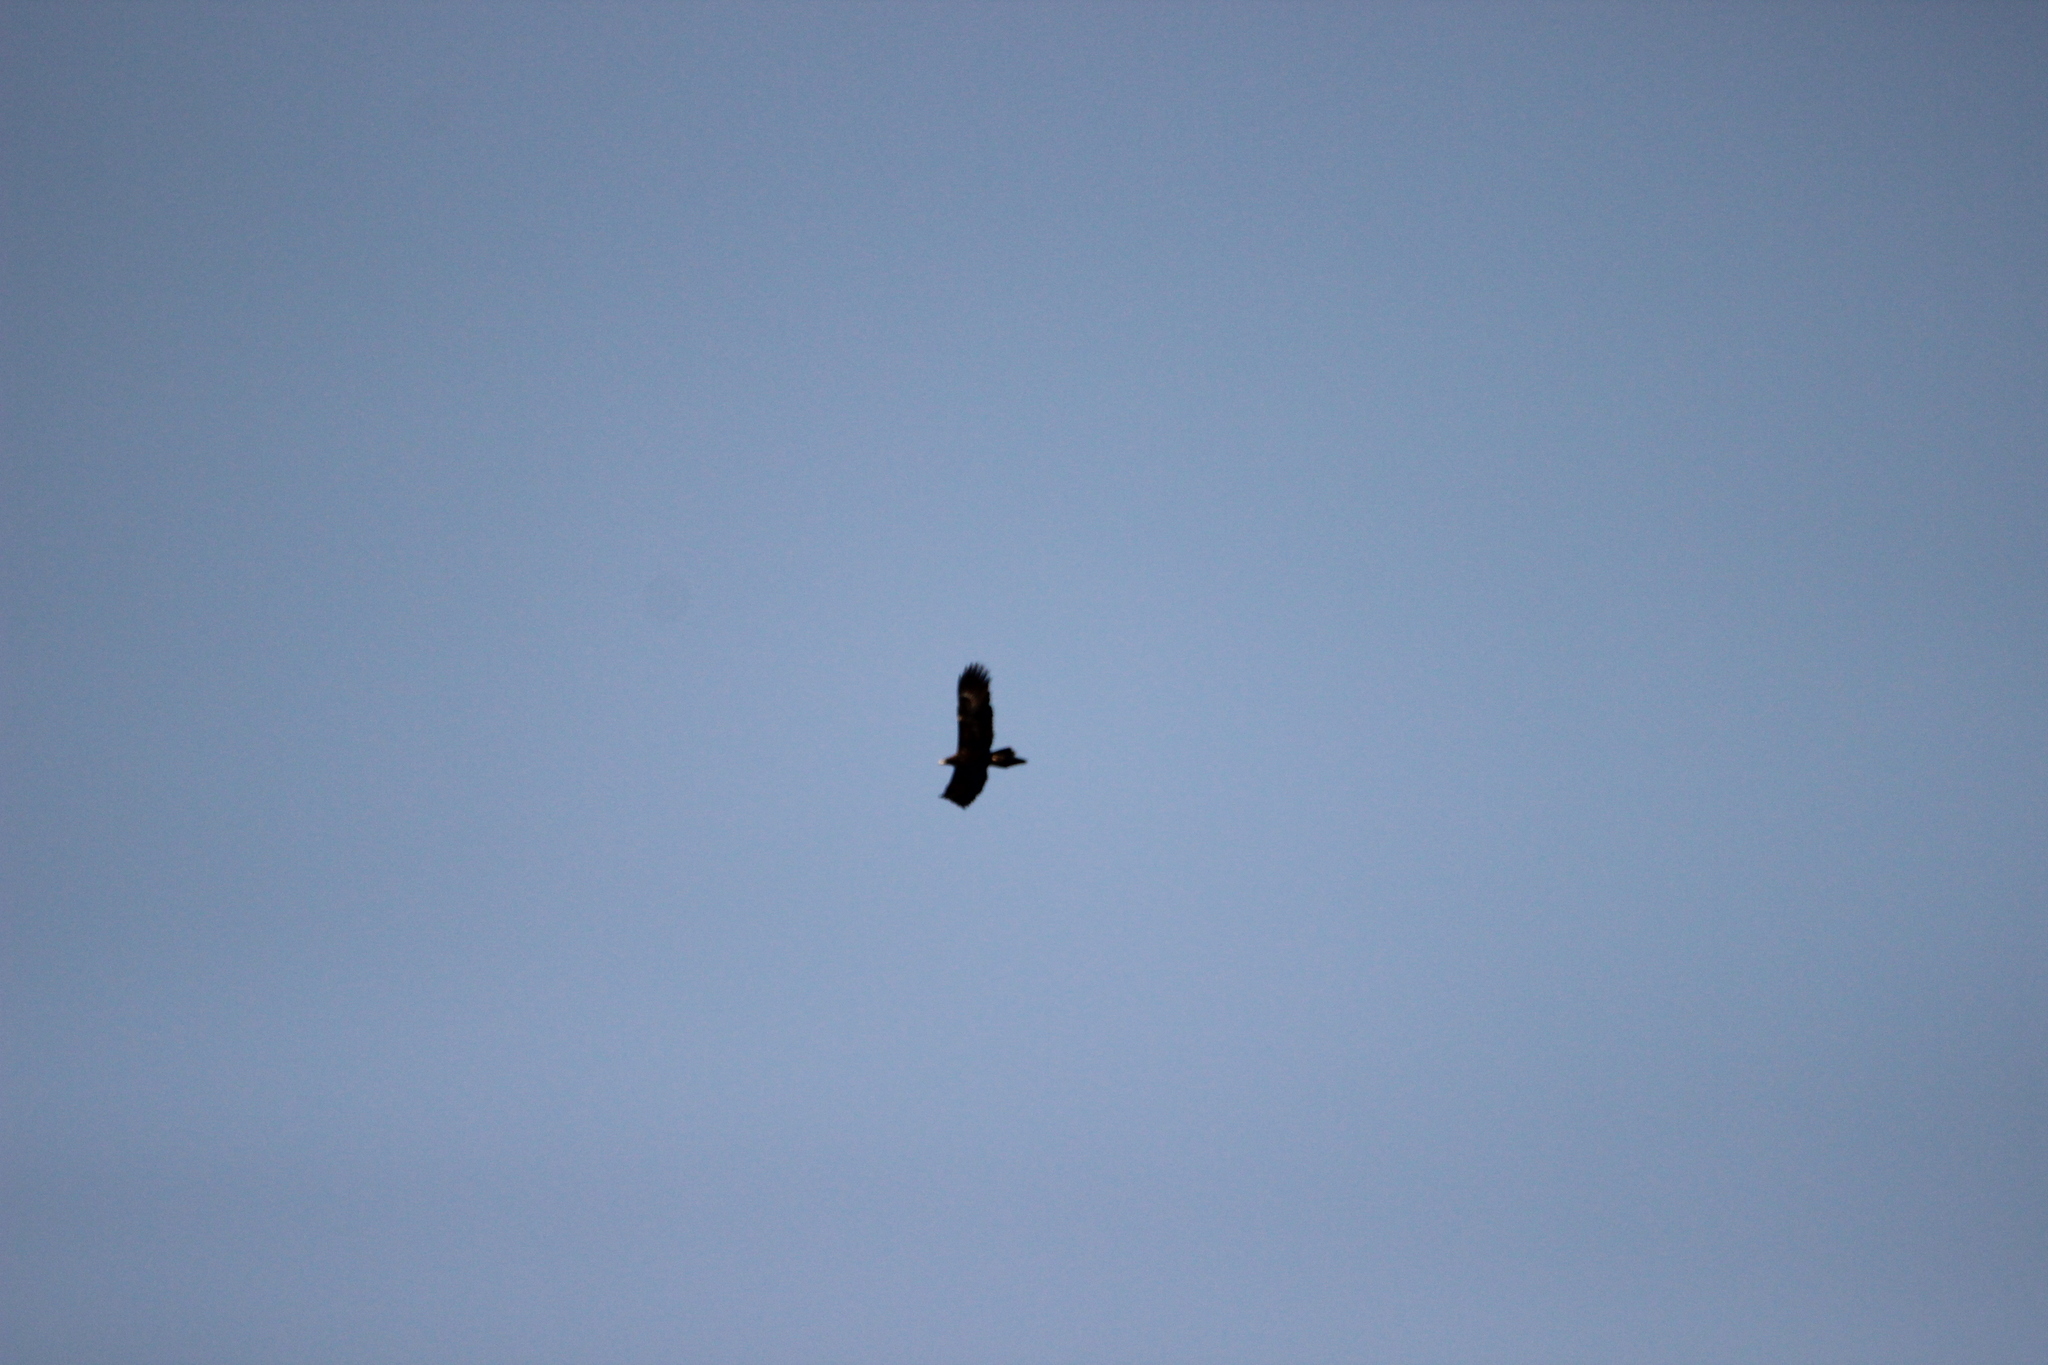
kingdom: Animalia
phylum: Chordata
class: Aves
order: Accipitriformes
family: Accipitridae
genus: Aquila
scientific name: Aquila audax
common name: Wedge-tailed eagle
